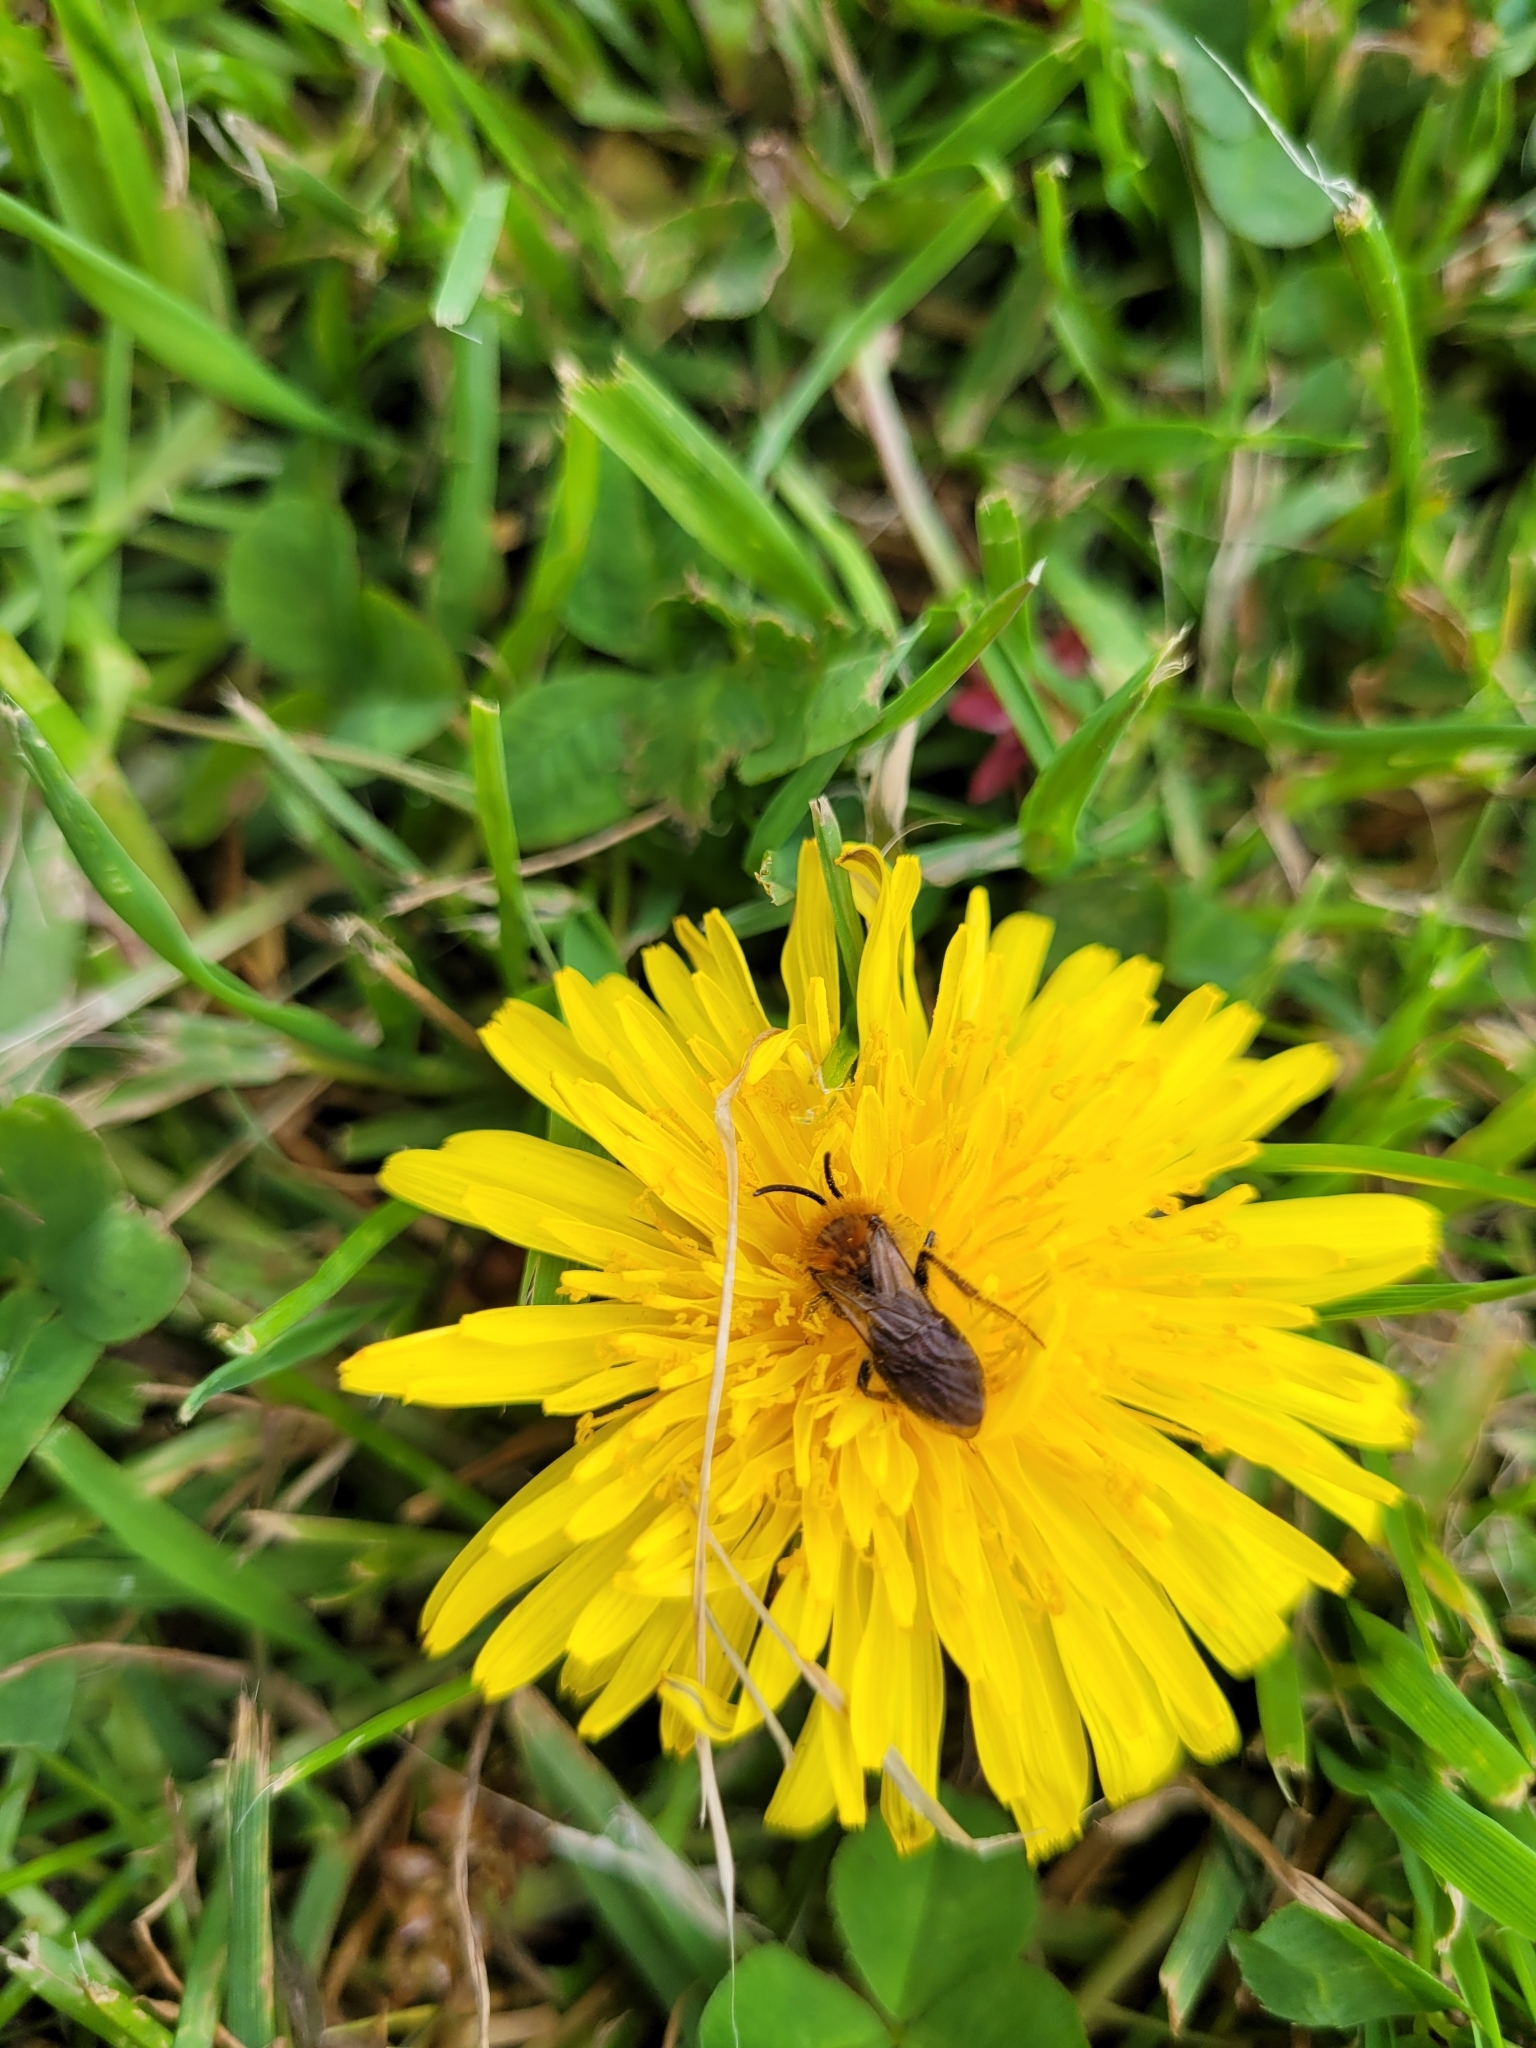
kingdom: Animalia
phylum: Arthropoda
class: Insecta
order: Hymenoptera
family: Andrenidae
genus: Andrena
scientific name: Andrena haemorrhoa
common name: Early mining bee
